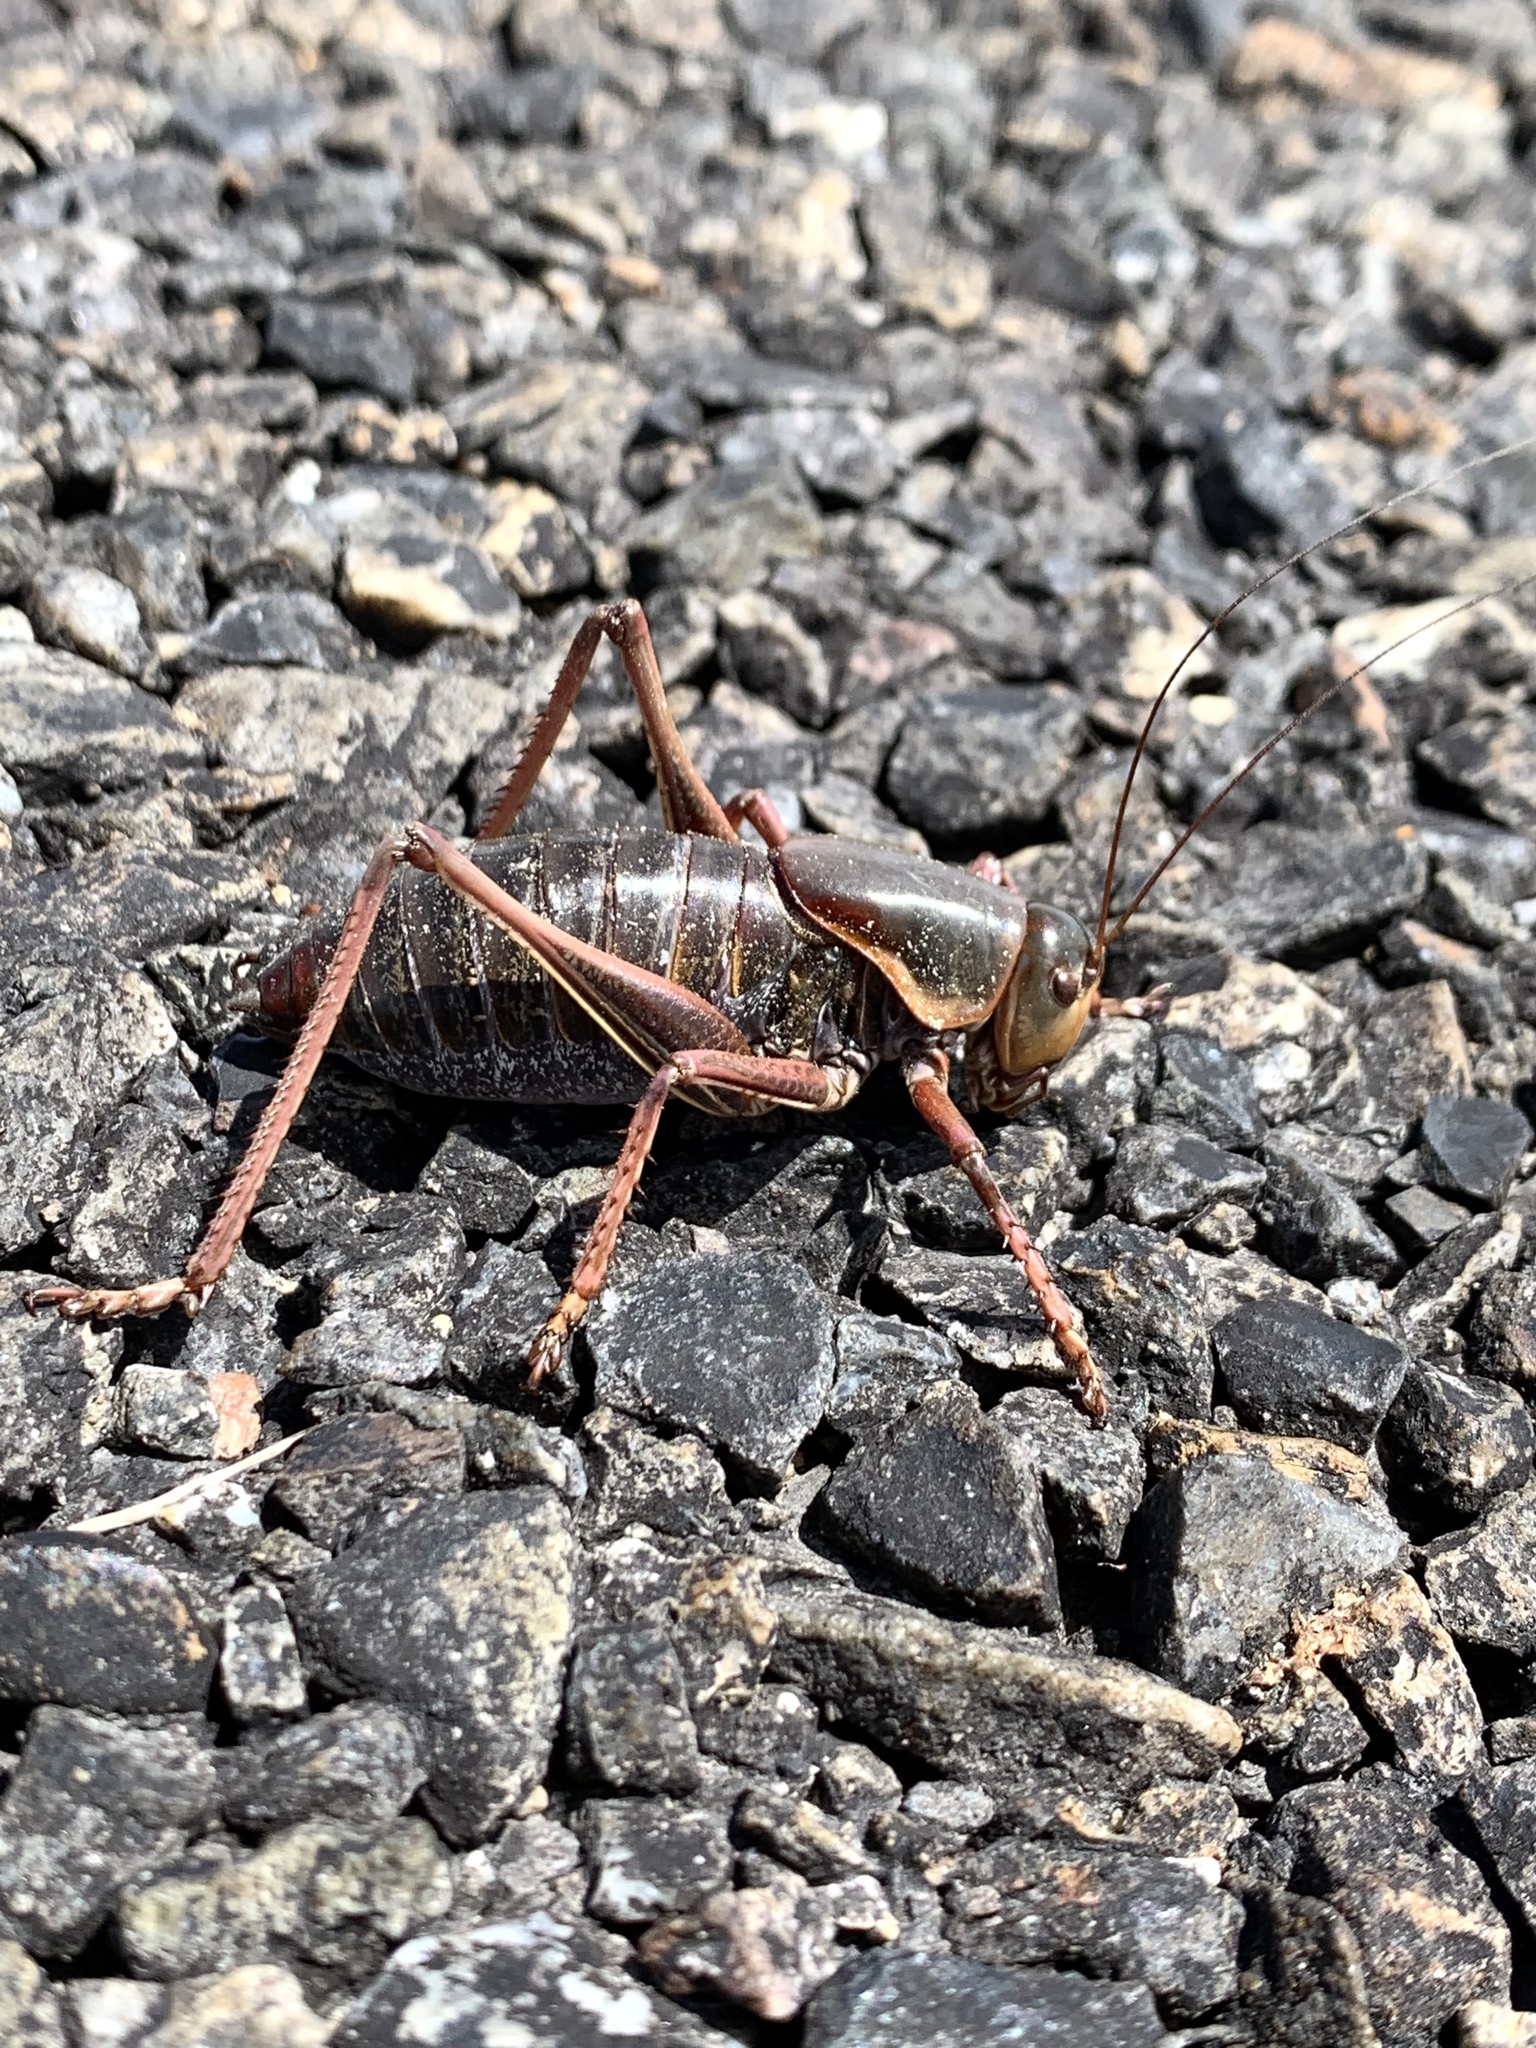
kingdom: Animalia
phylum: Arthropoda
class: Insecta
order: Orthoptera
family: Tettigoniidae
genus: Anabrus
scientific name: Anabrus simplex
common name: Mormon cricket
